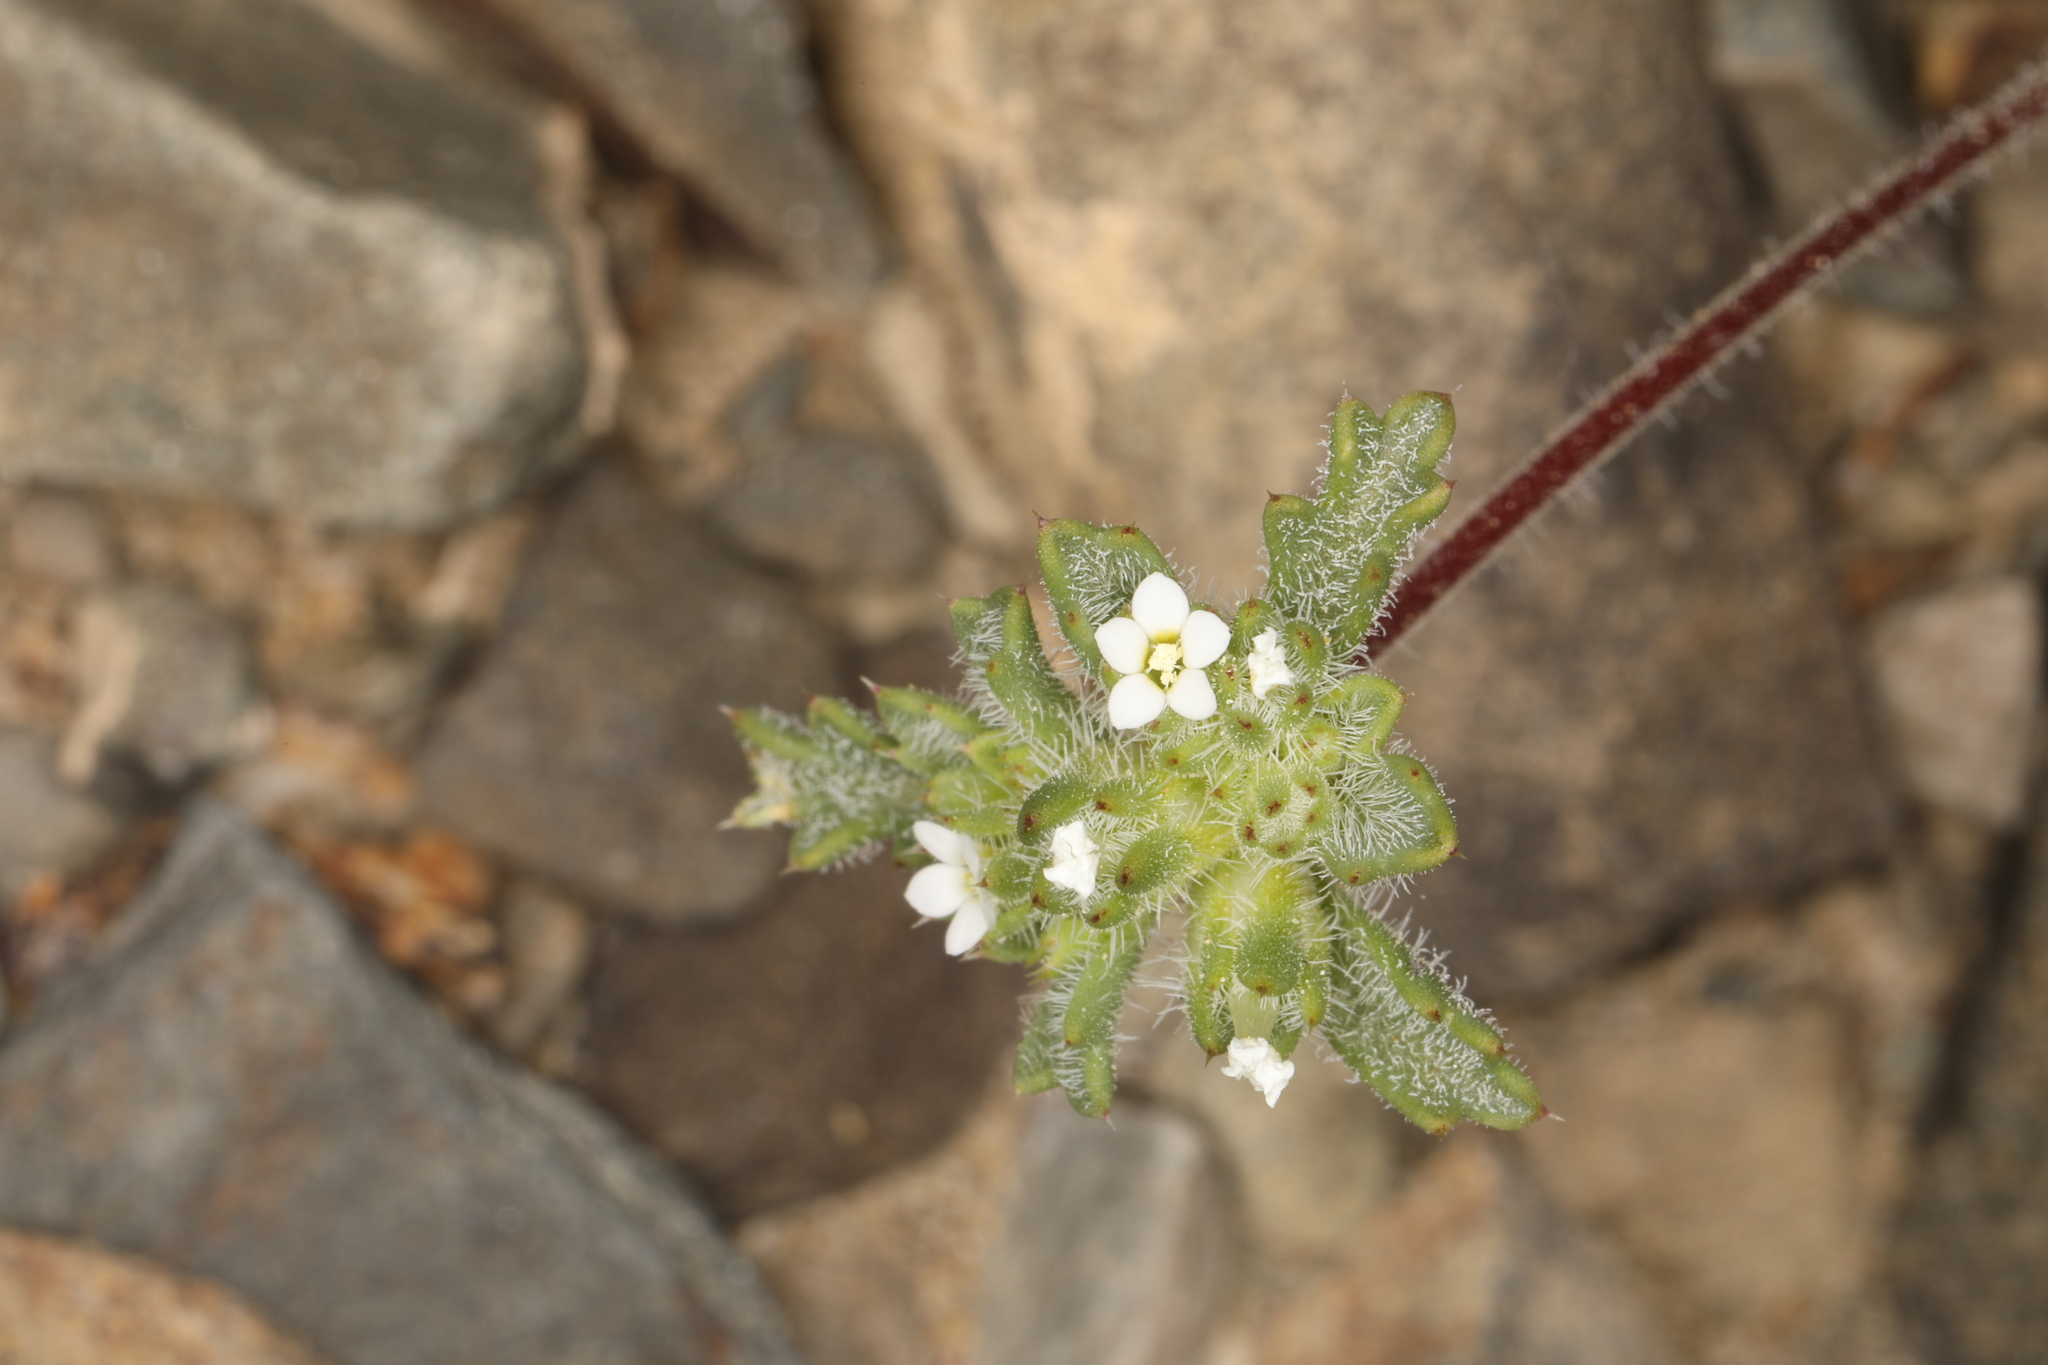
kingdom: Plantae
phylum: Tracheophyta
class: Magnoliopsida
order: Ericales
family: Polemoniaceae
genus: Ipomopsis
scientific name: Ipomopsis polycladon
